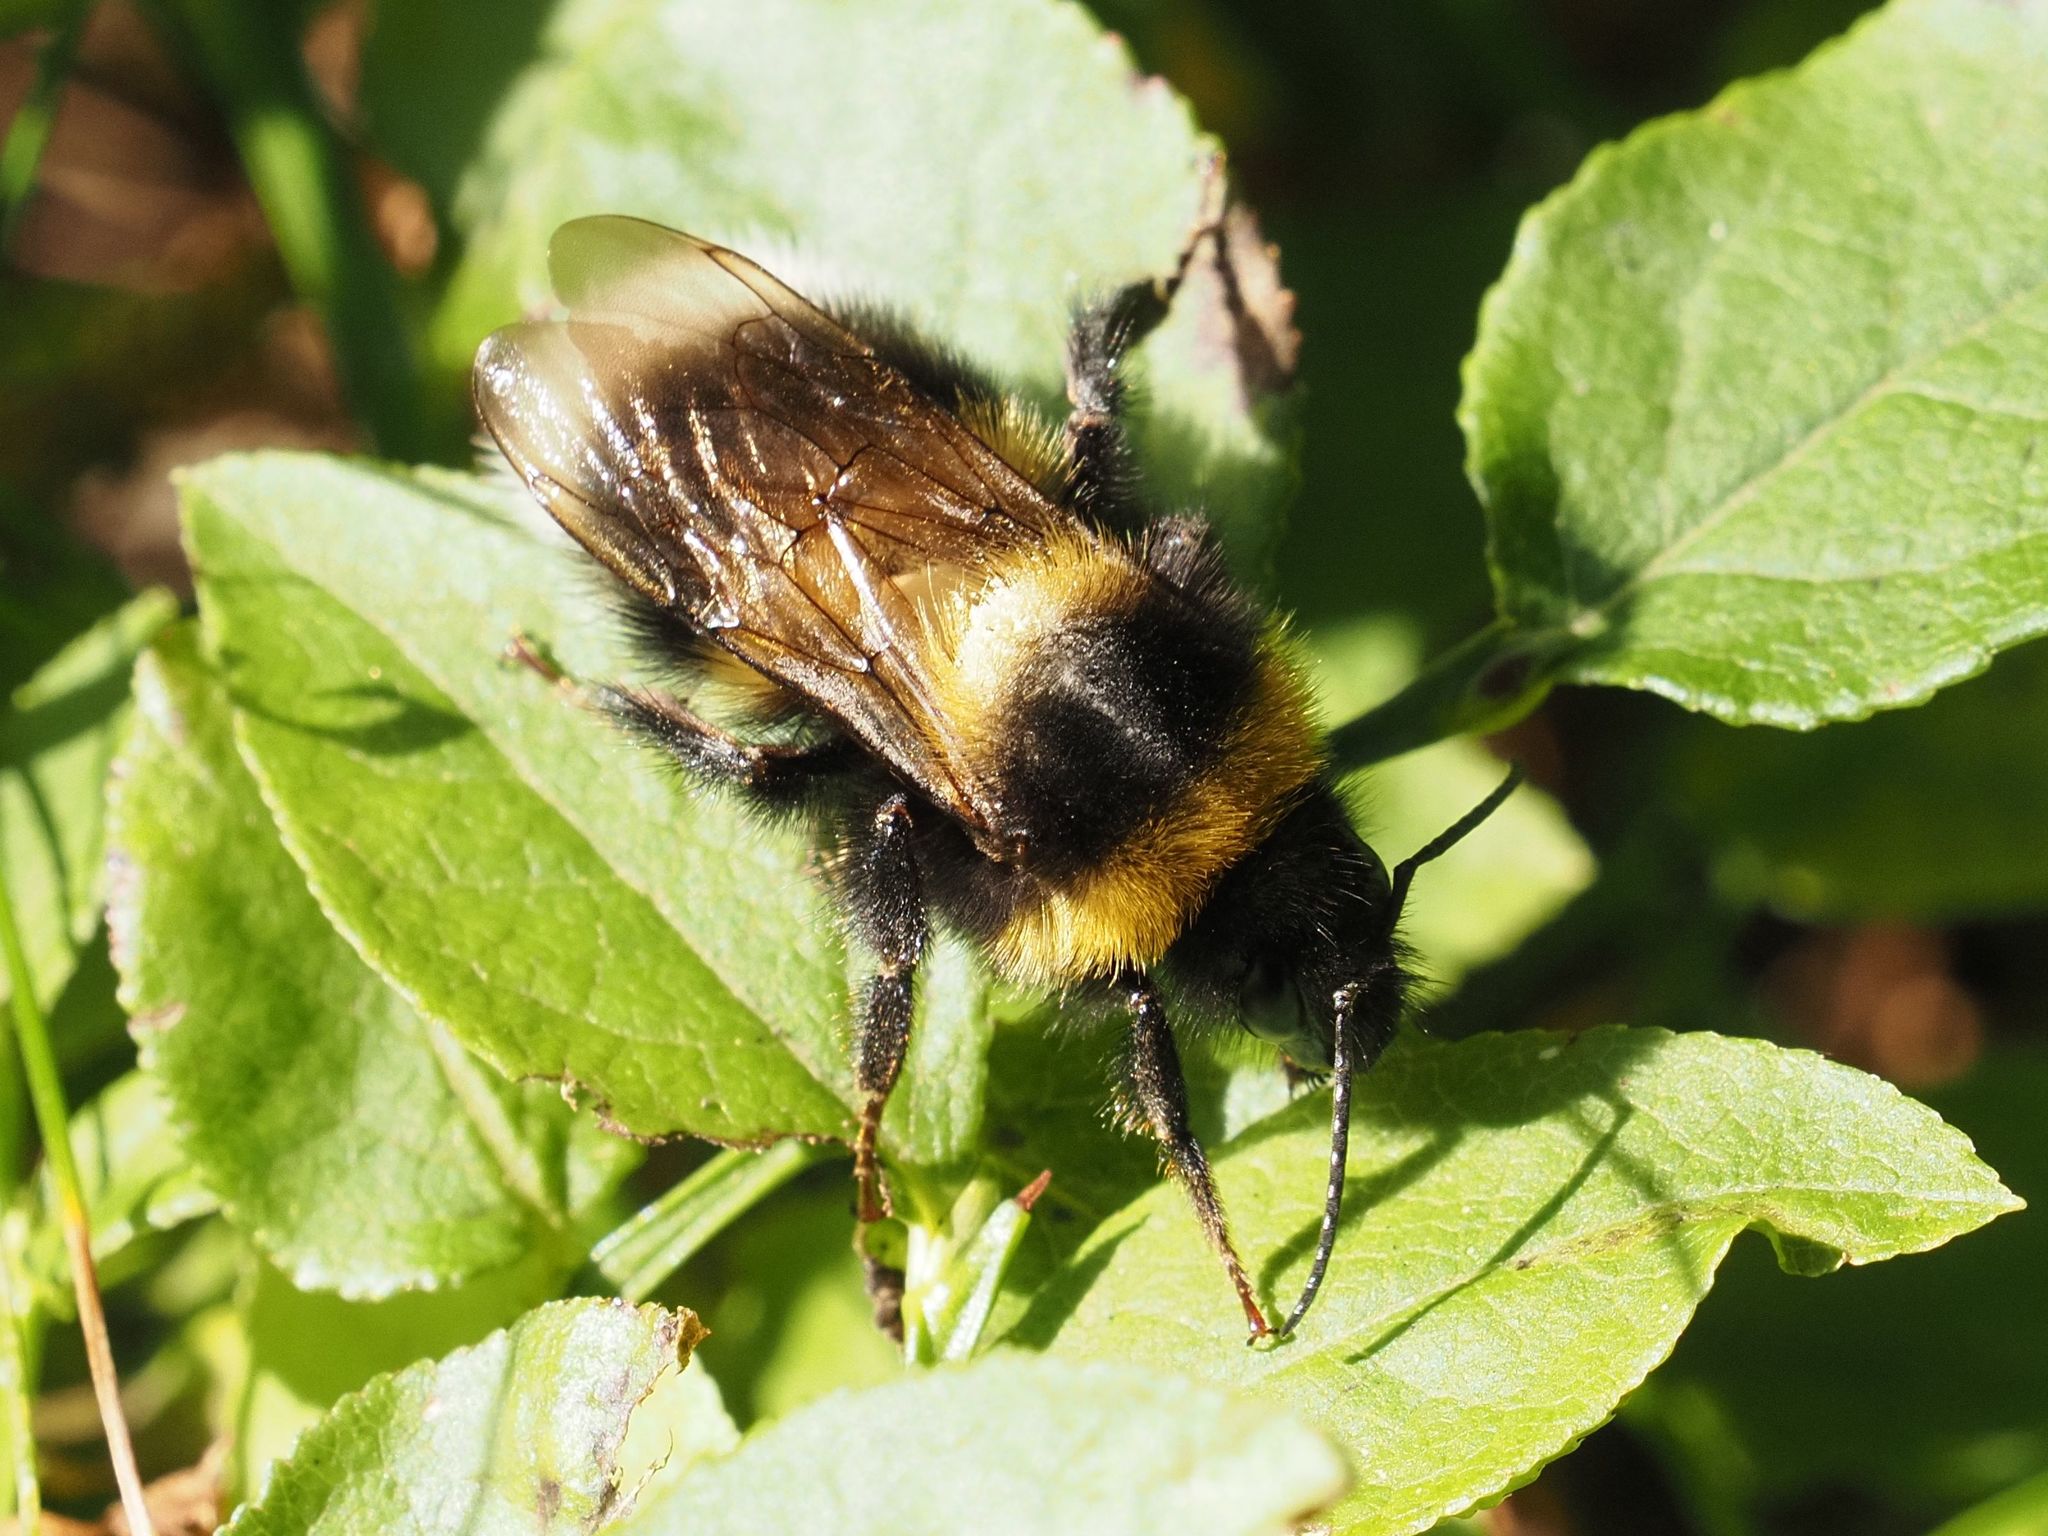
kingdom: Animalia
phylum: Arthropoda
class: Insecta
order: Hymenoptera
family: Apidae
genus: Bombus
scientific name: Bombus hortorum
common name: Garden bumblebee
